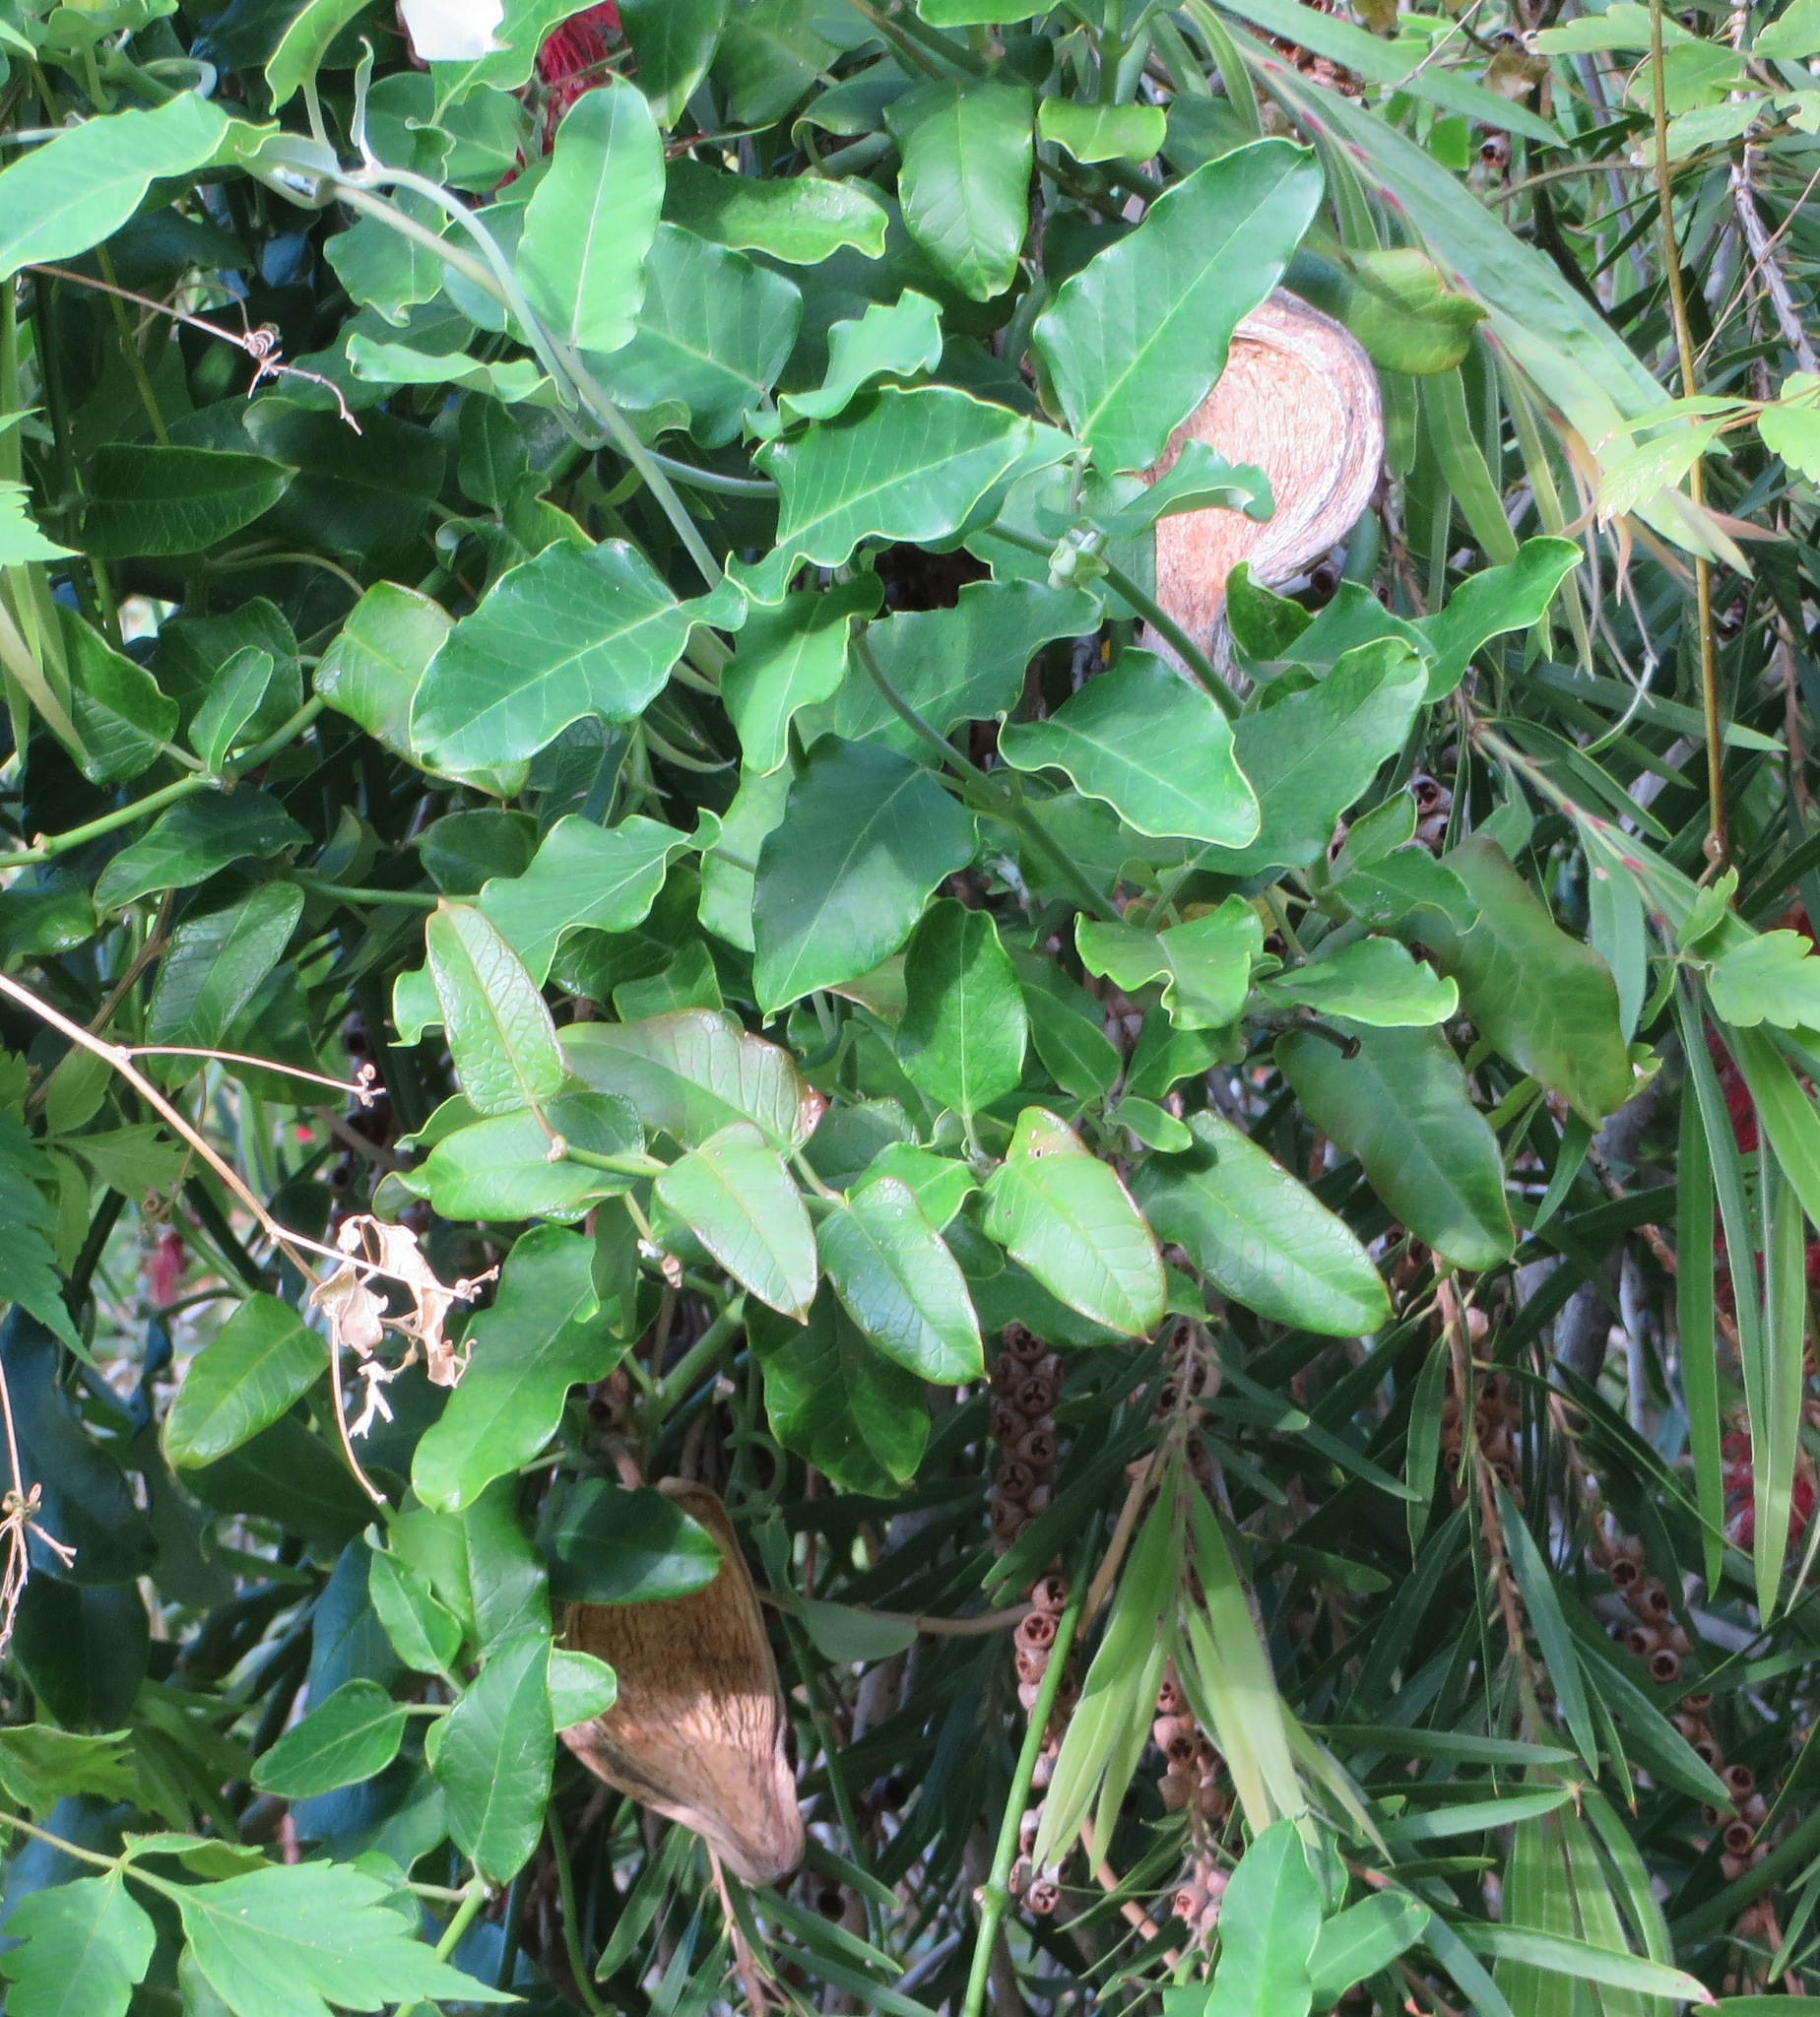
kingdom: Plantae
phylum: Tracheophyta
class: Magnoliopsida
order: Gentianales
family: Apocynaceae
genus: Araujia
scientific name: Araujia sericifera
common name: White bladderflower
